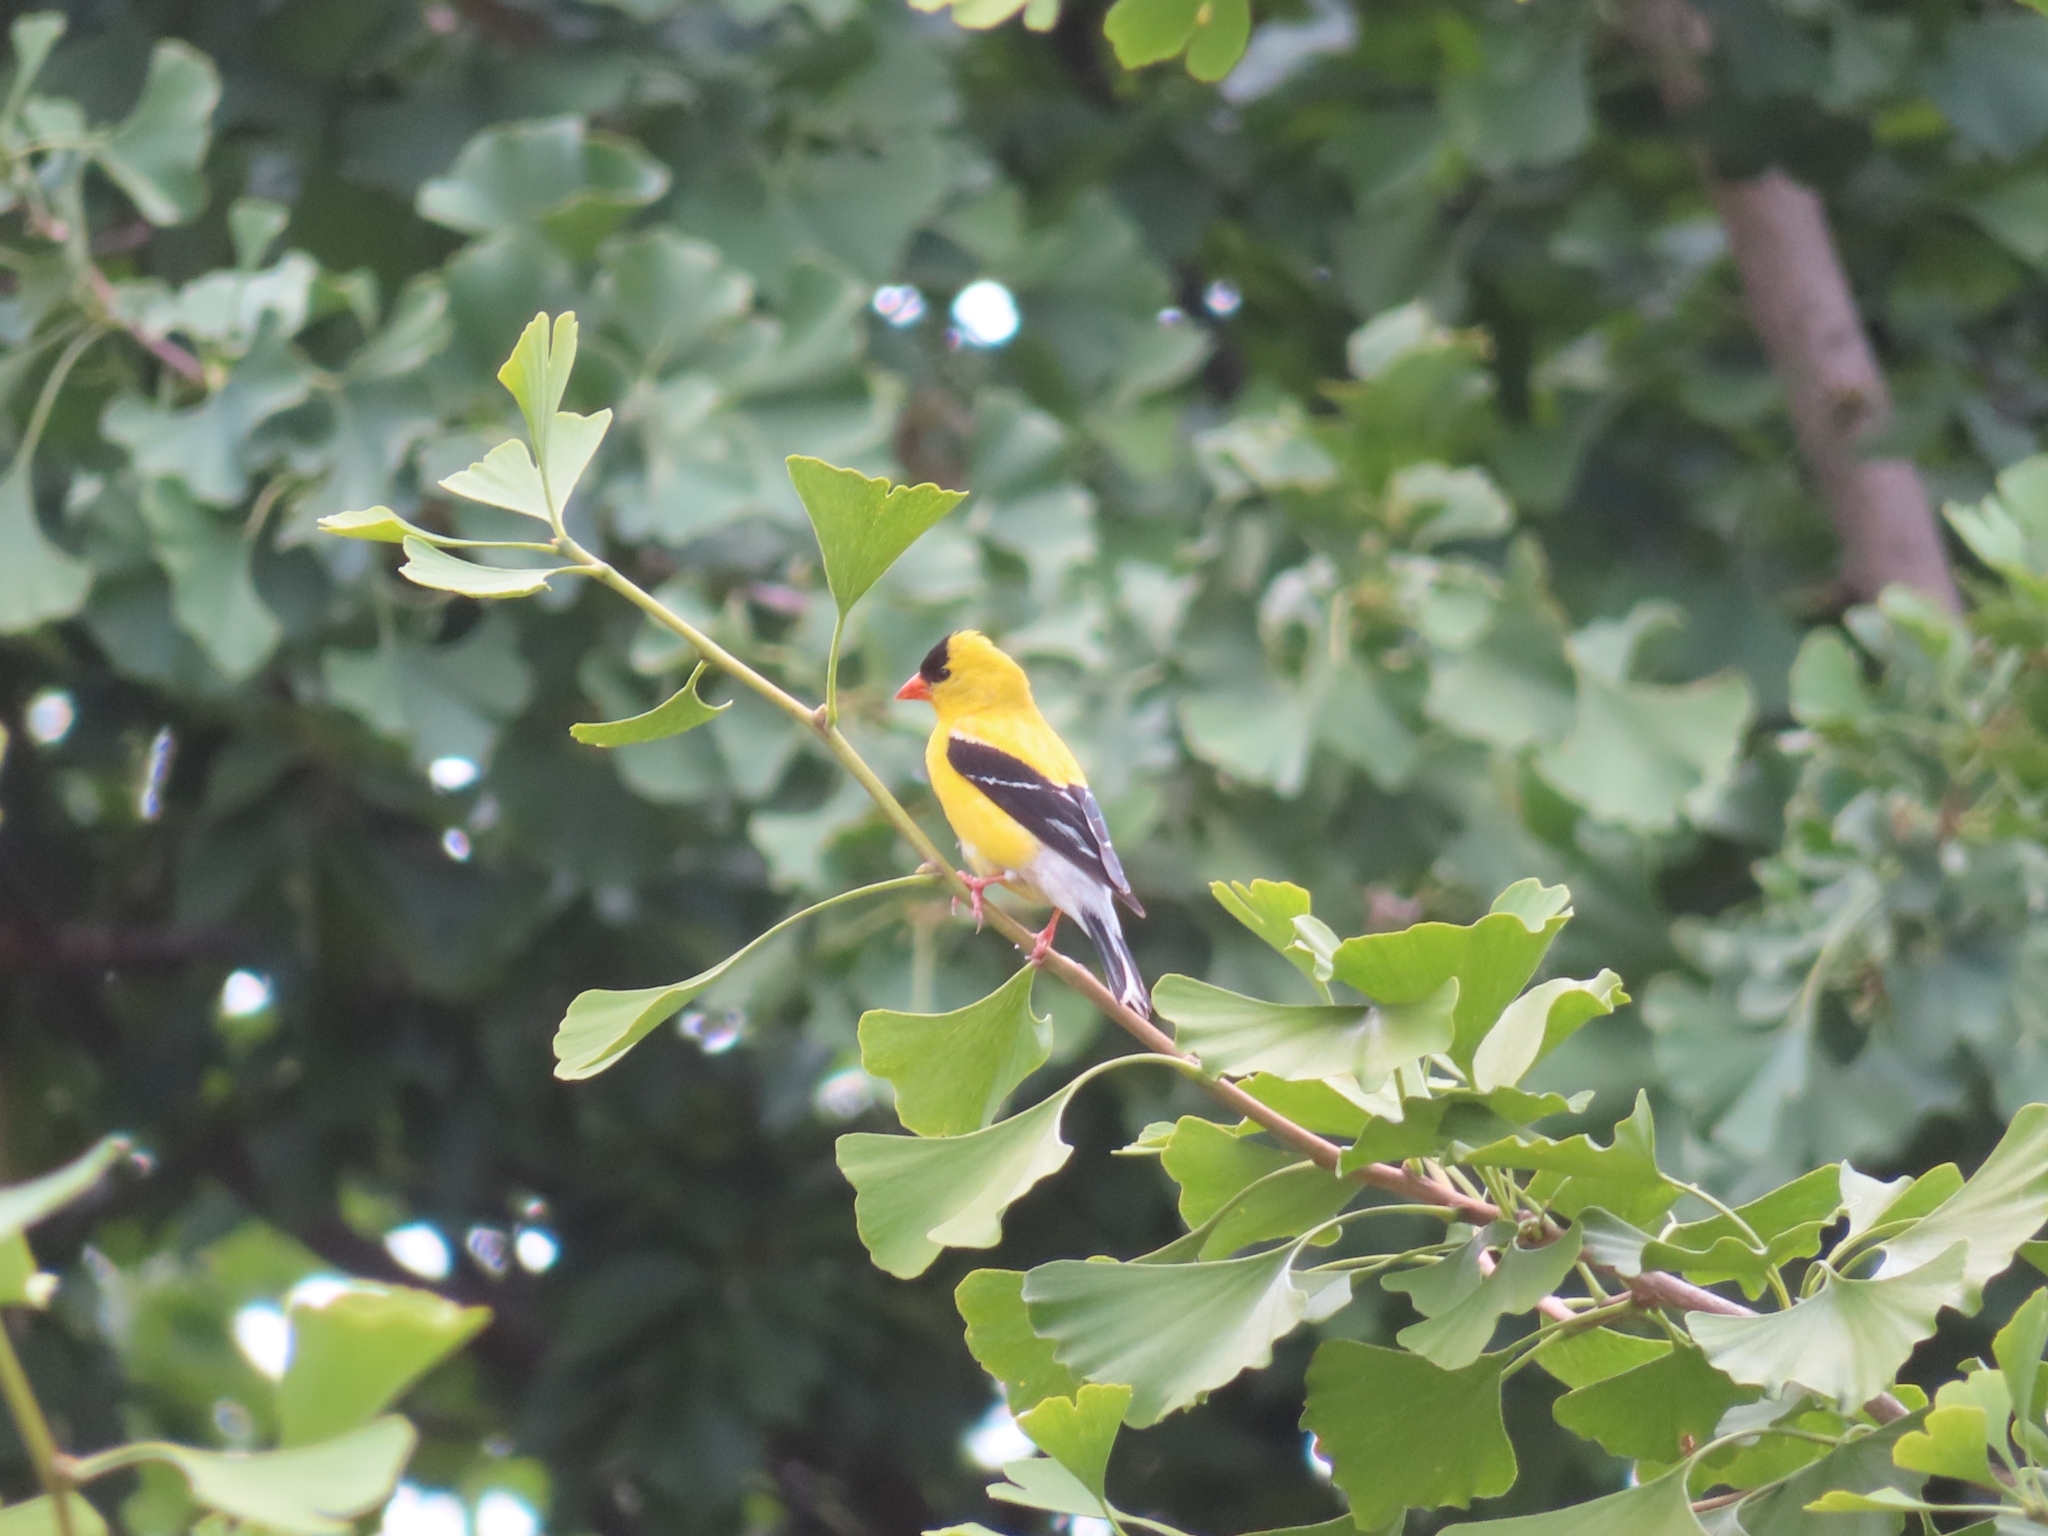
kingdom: Animalia
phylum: Chordata
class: Aves
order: Passeriformes
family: Fringillidae
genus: Spinus
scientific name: Spinus tristis
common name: American goldfinch
